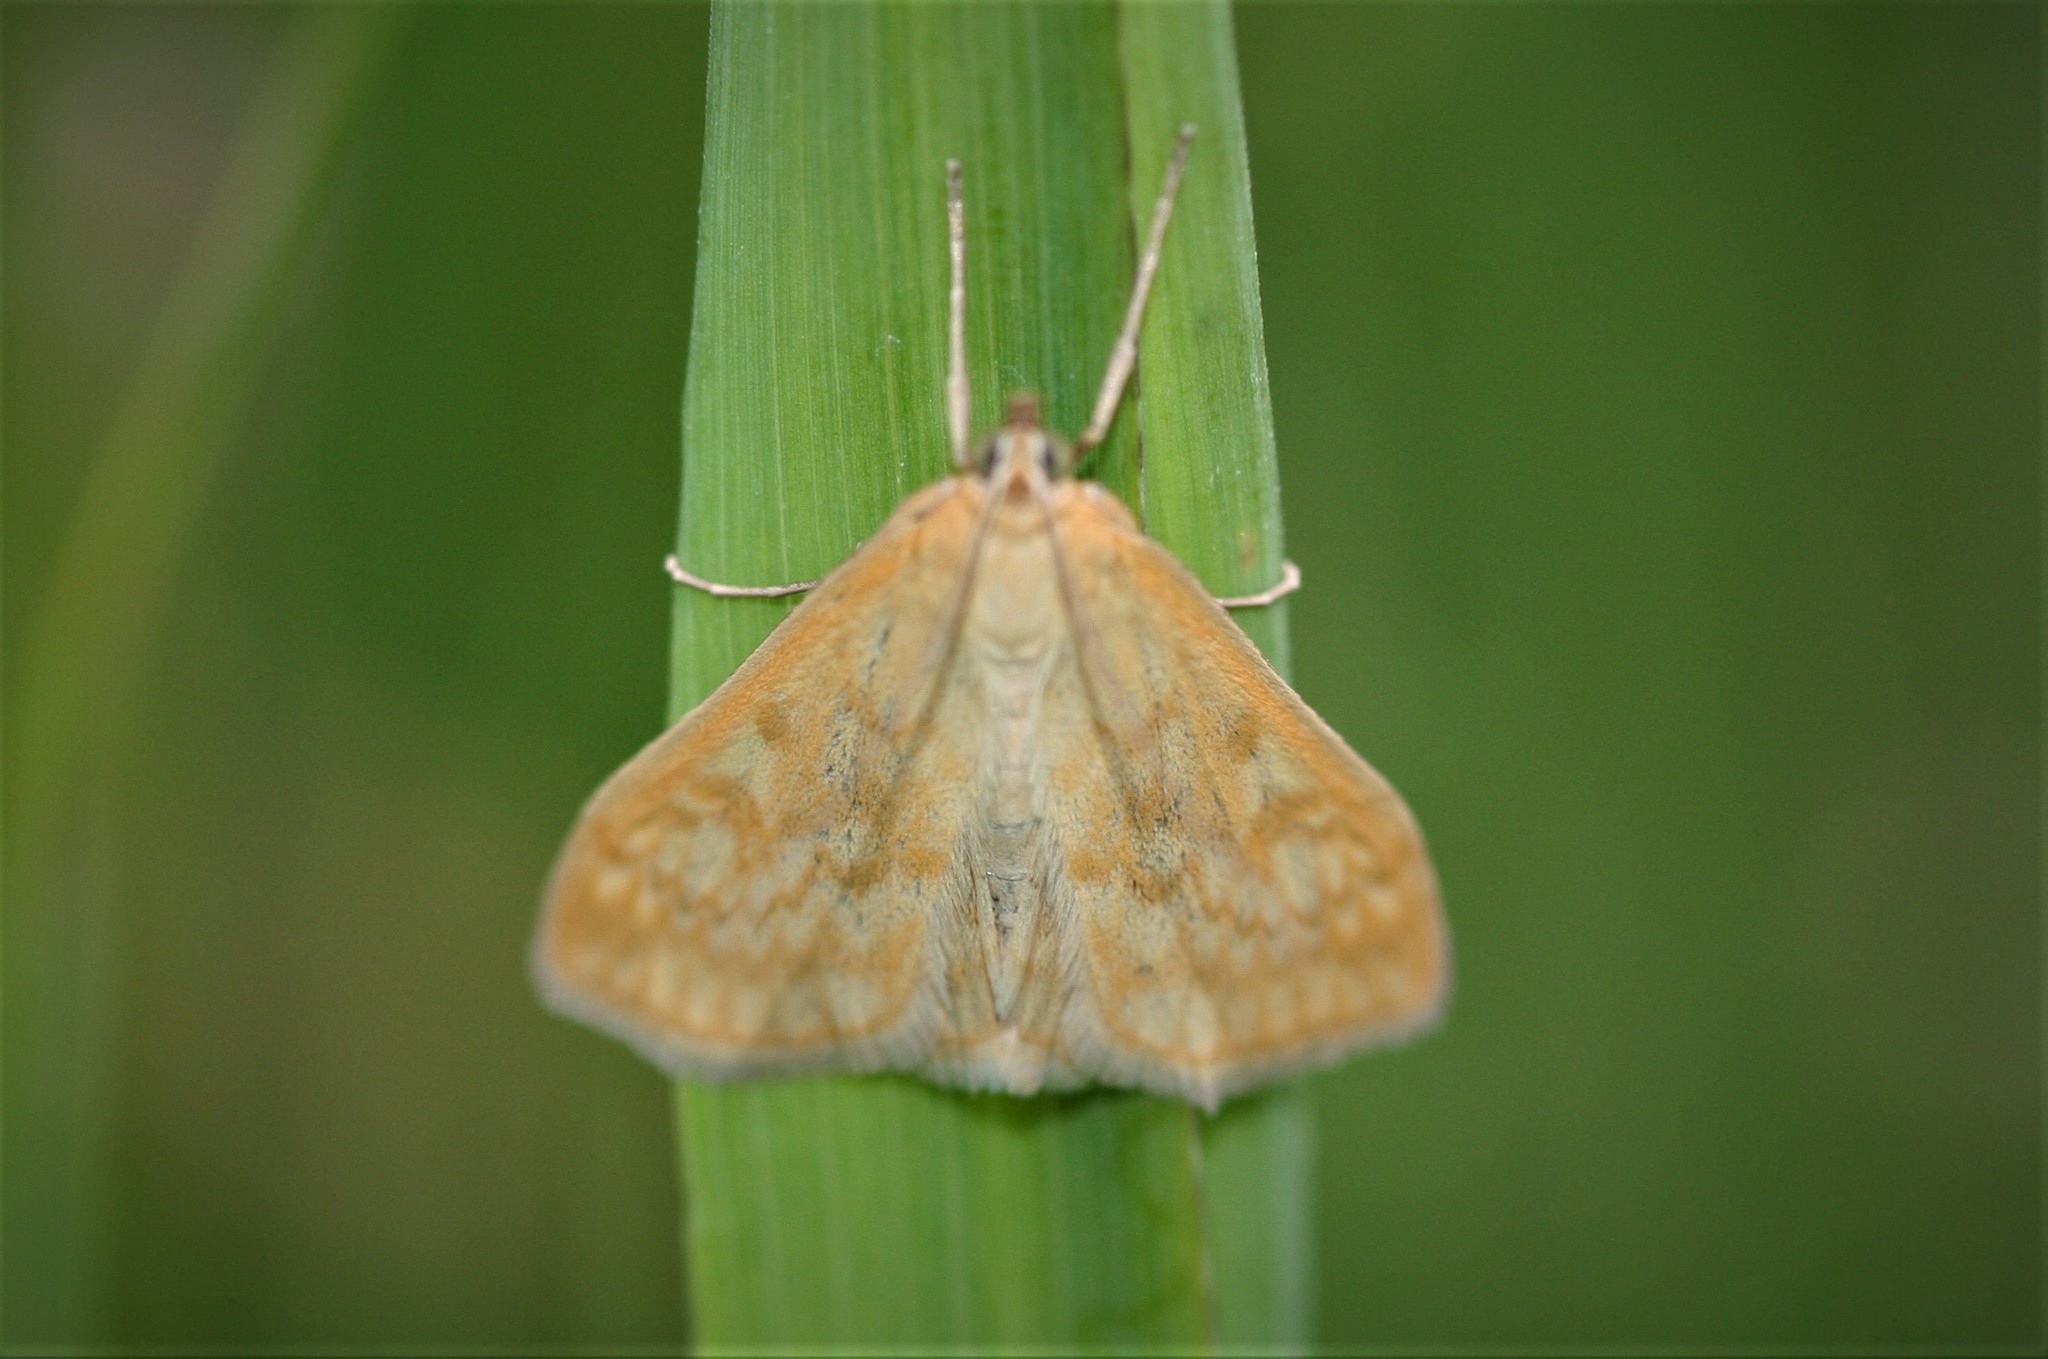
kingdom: Animalia
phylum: Arthropoda
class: Insecta
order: Lepidoptera
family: Crambidae
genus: Sitochroa
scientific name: Sitochroa verticalis
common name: Lesser pearl
